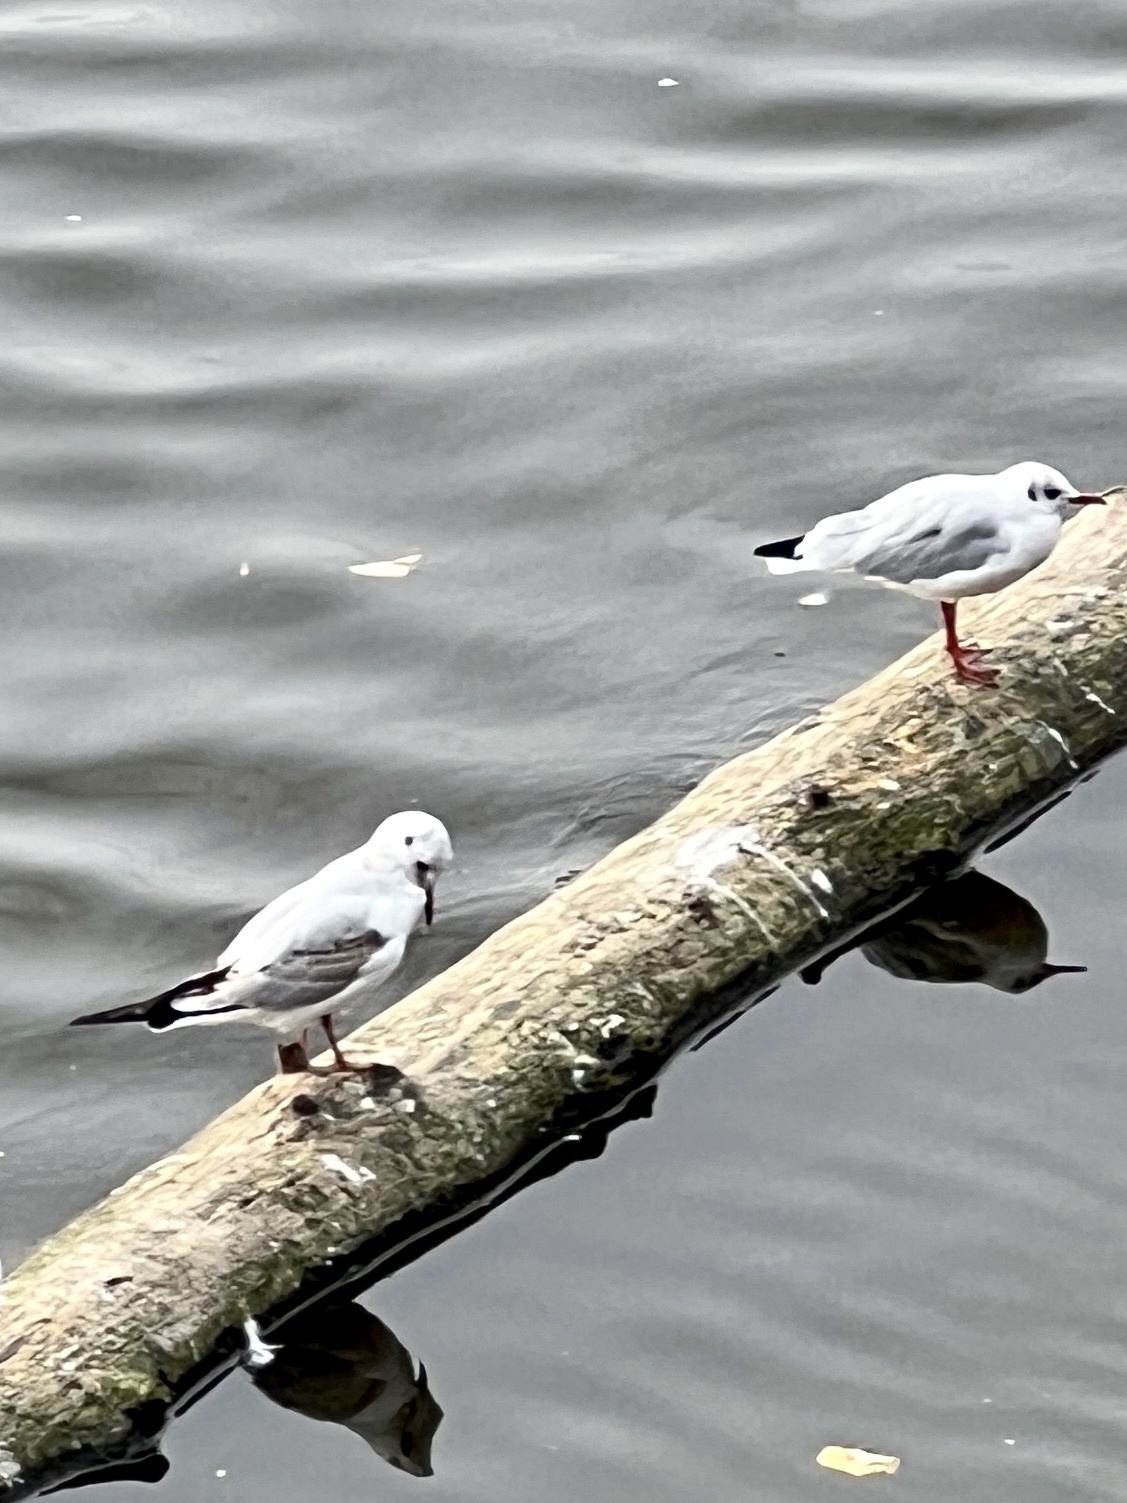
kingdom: Animalia
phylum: Chordata
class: Aves
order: Charadriiformes
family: Laridae
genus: Chroicocephalus
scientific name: Chroicocephalus ridibundus
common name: Black-headed gull
